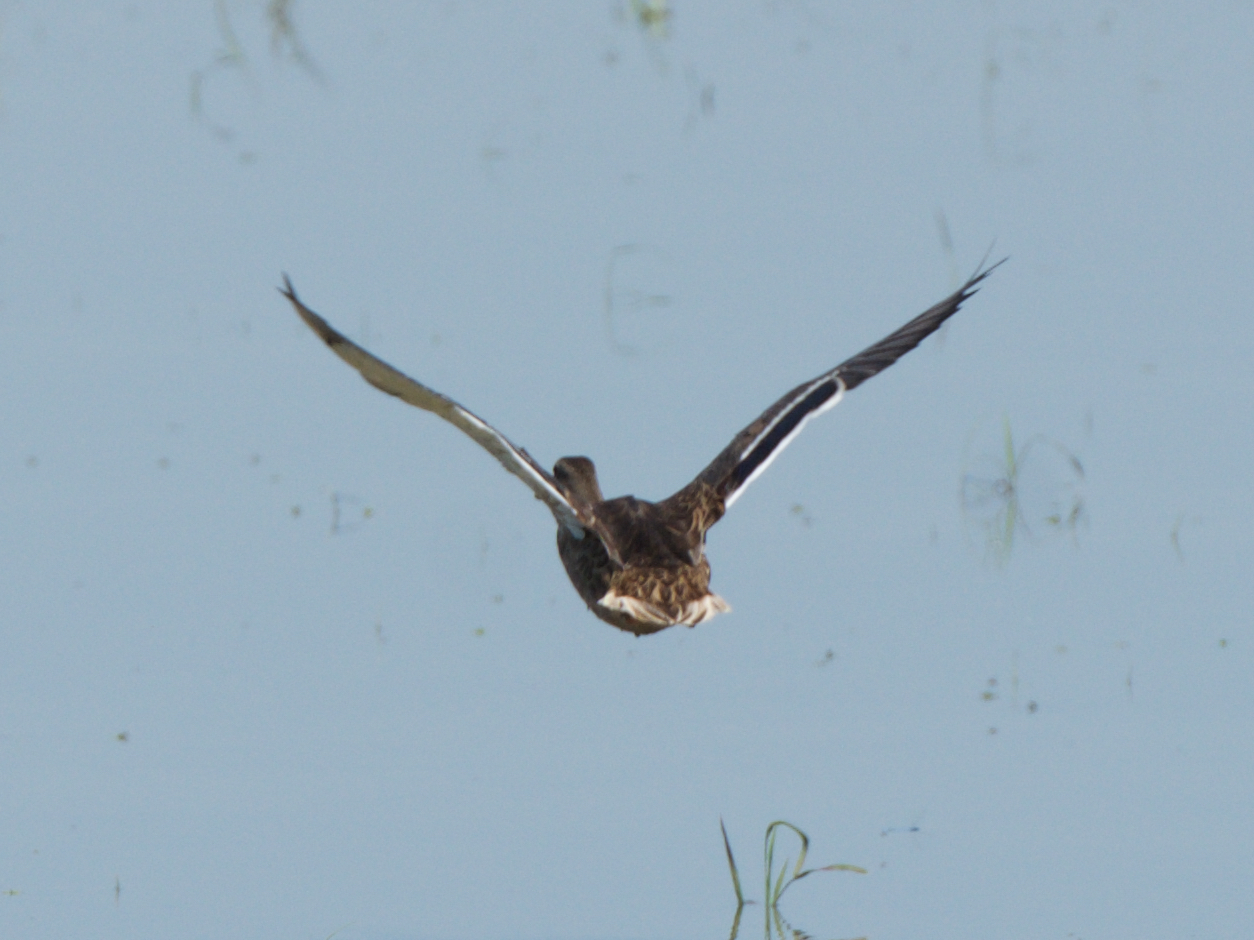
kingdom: Animalia
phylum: Chordata
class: Aves
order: Anseriformes
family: Anatidae
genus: Anas
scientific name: Anas platyrhynchos
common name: Mallard
